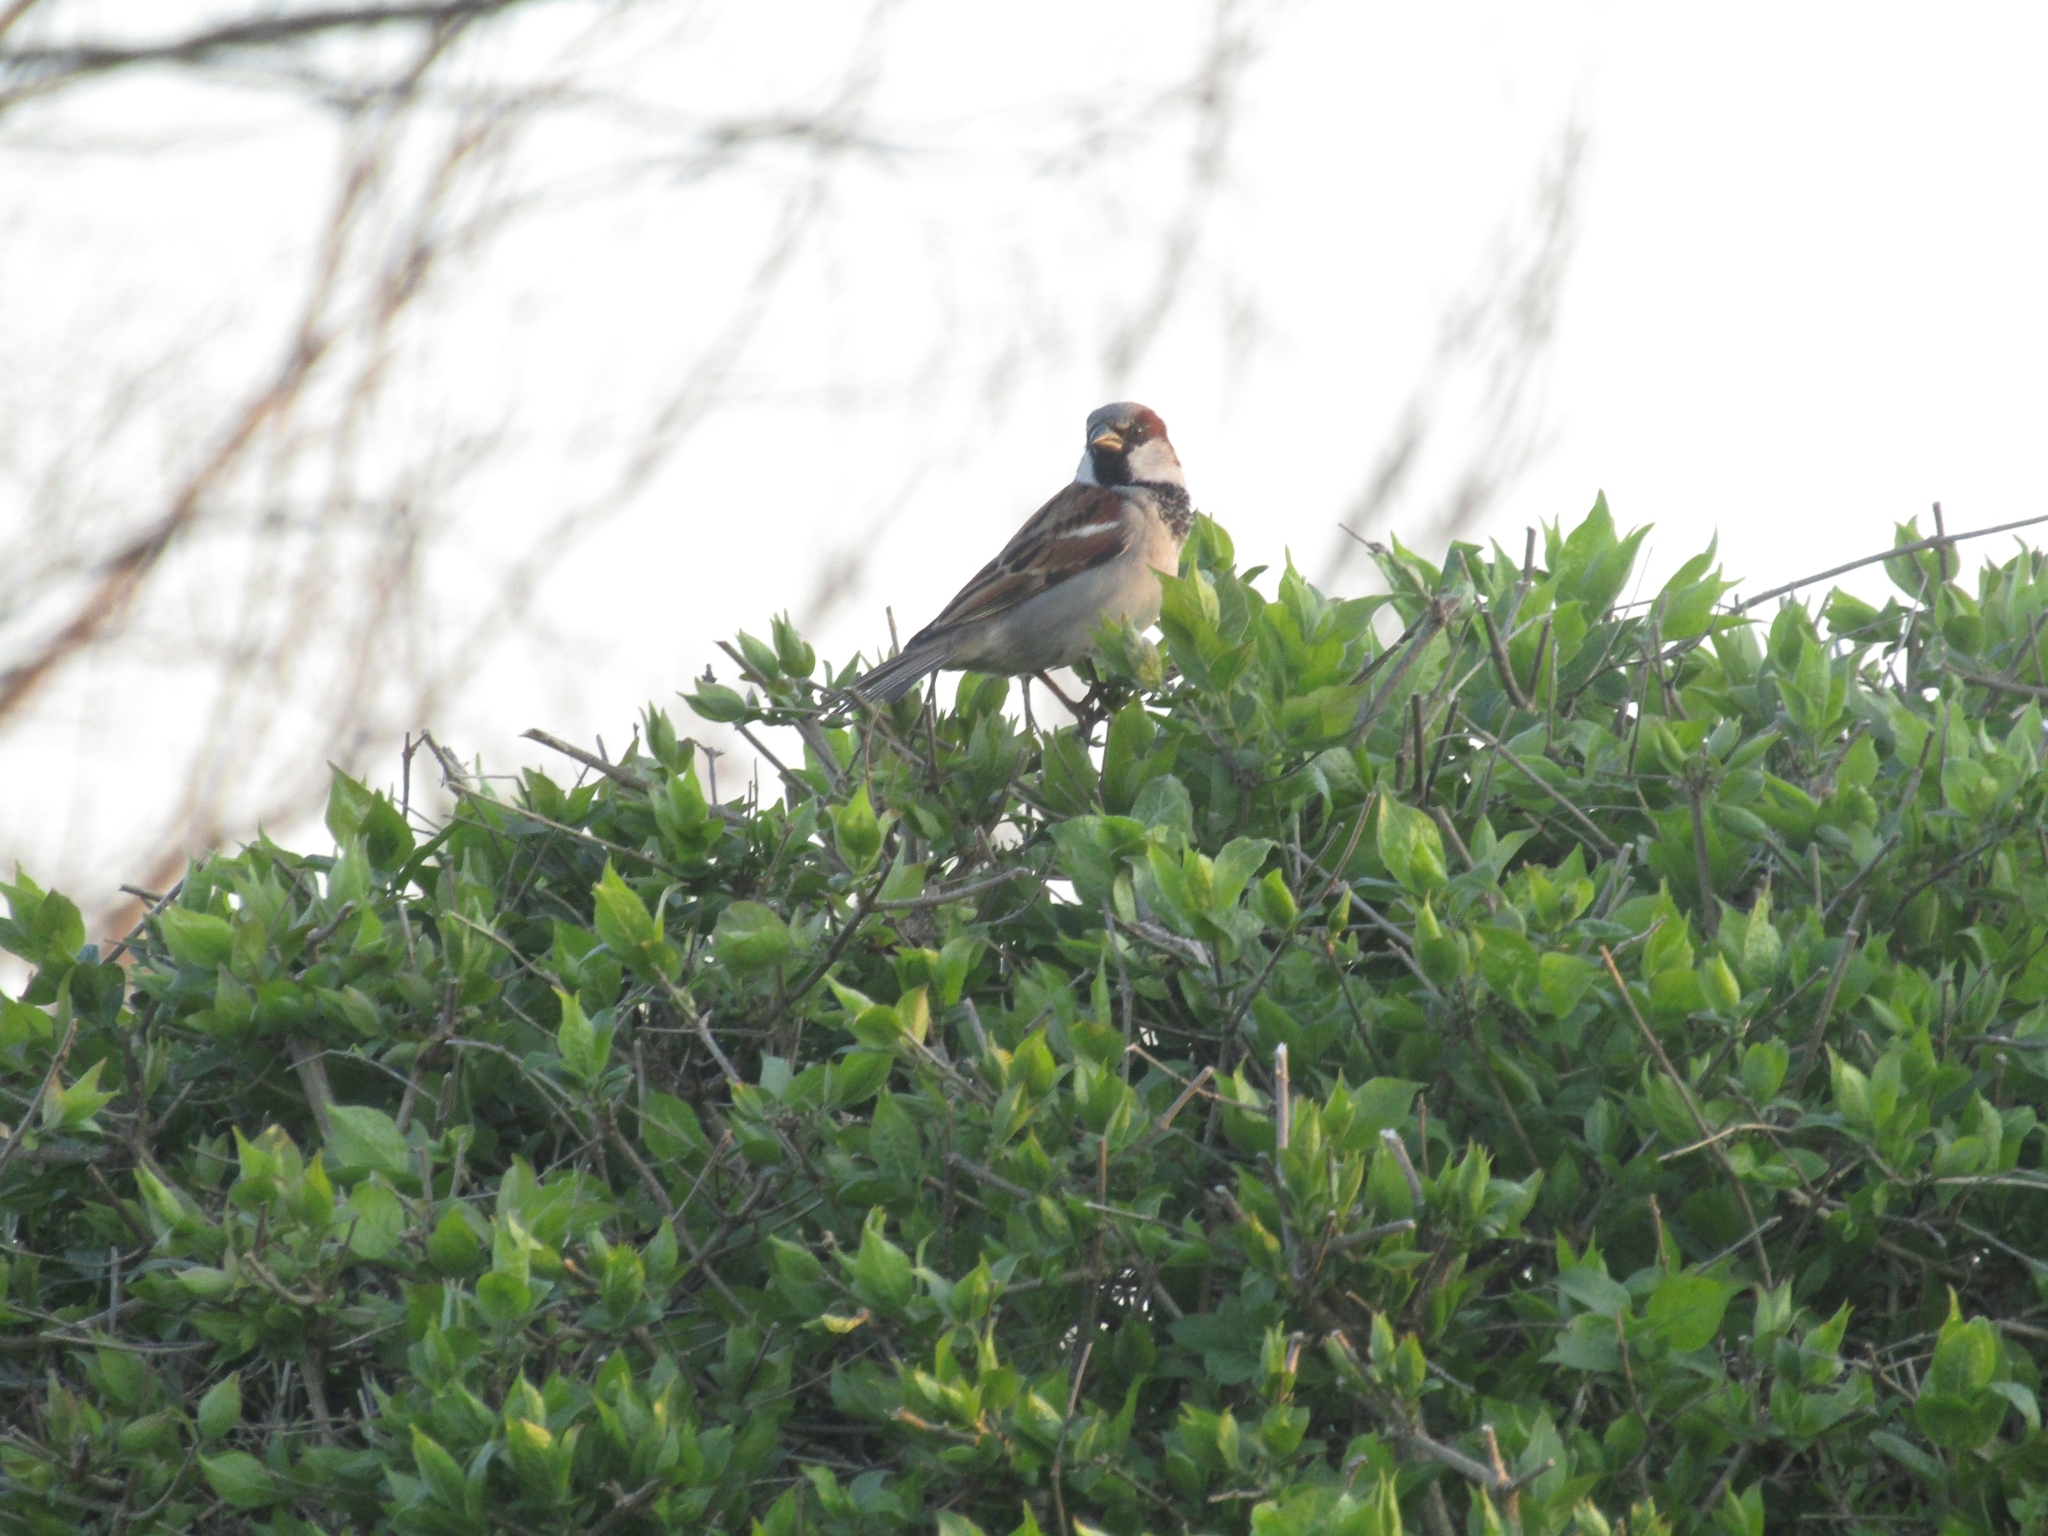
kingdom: Animalia
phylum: Chordata
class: Aves
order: Passeriformes
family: Passeridae
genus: Passer
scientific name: Passer domesticus
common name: House sparrow
